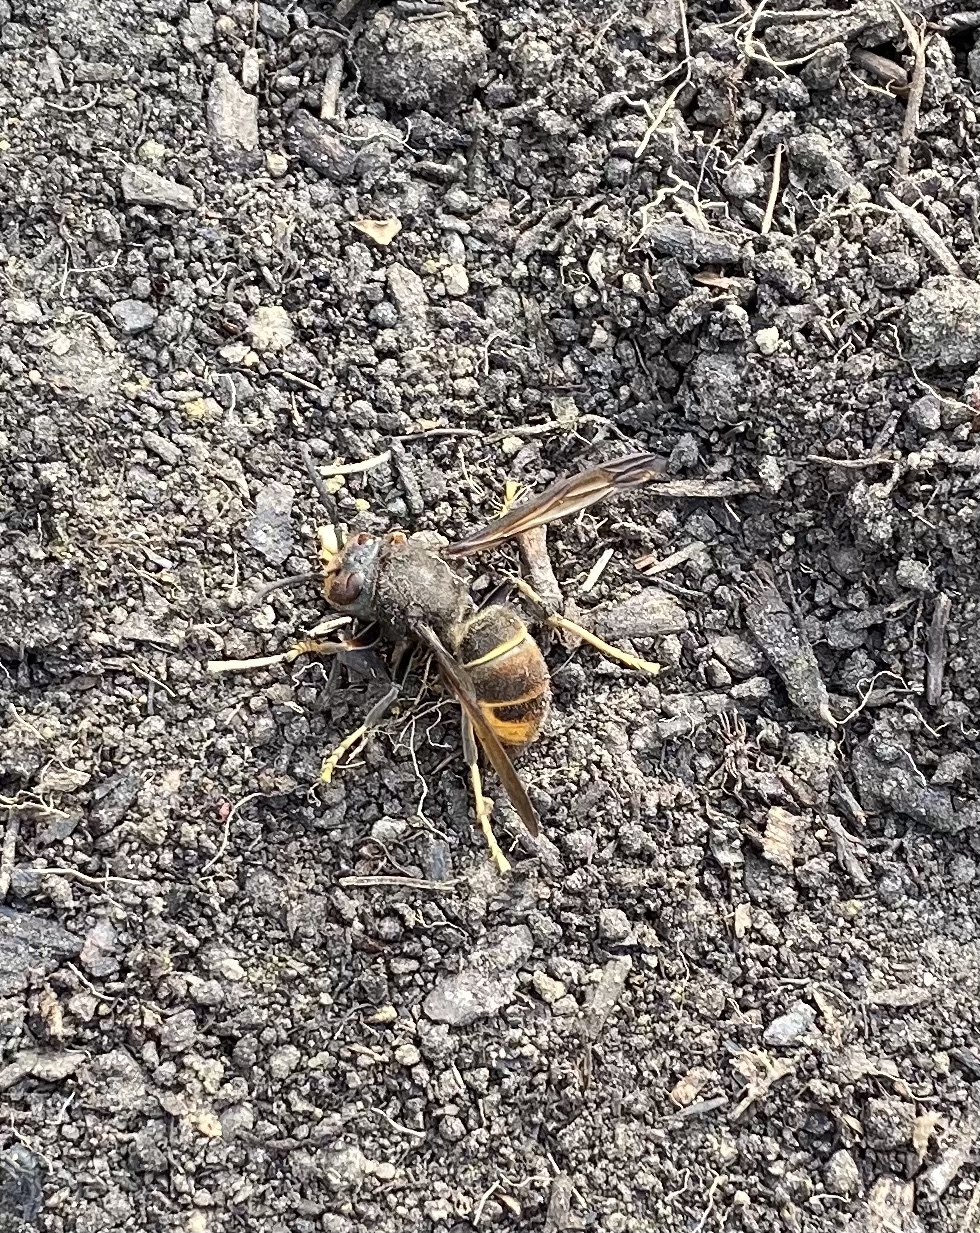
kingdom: Animalia
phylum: Arthropoda
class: Insecta
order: Hymenoptera
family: Vespidae
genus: Vespa
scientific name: Vespa velutina
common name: Asian hornet
